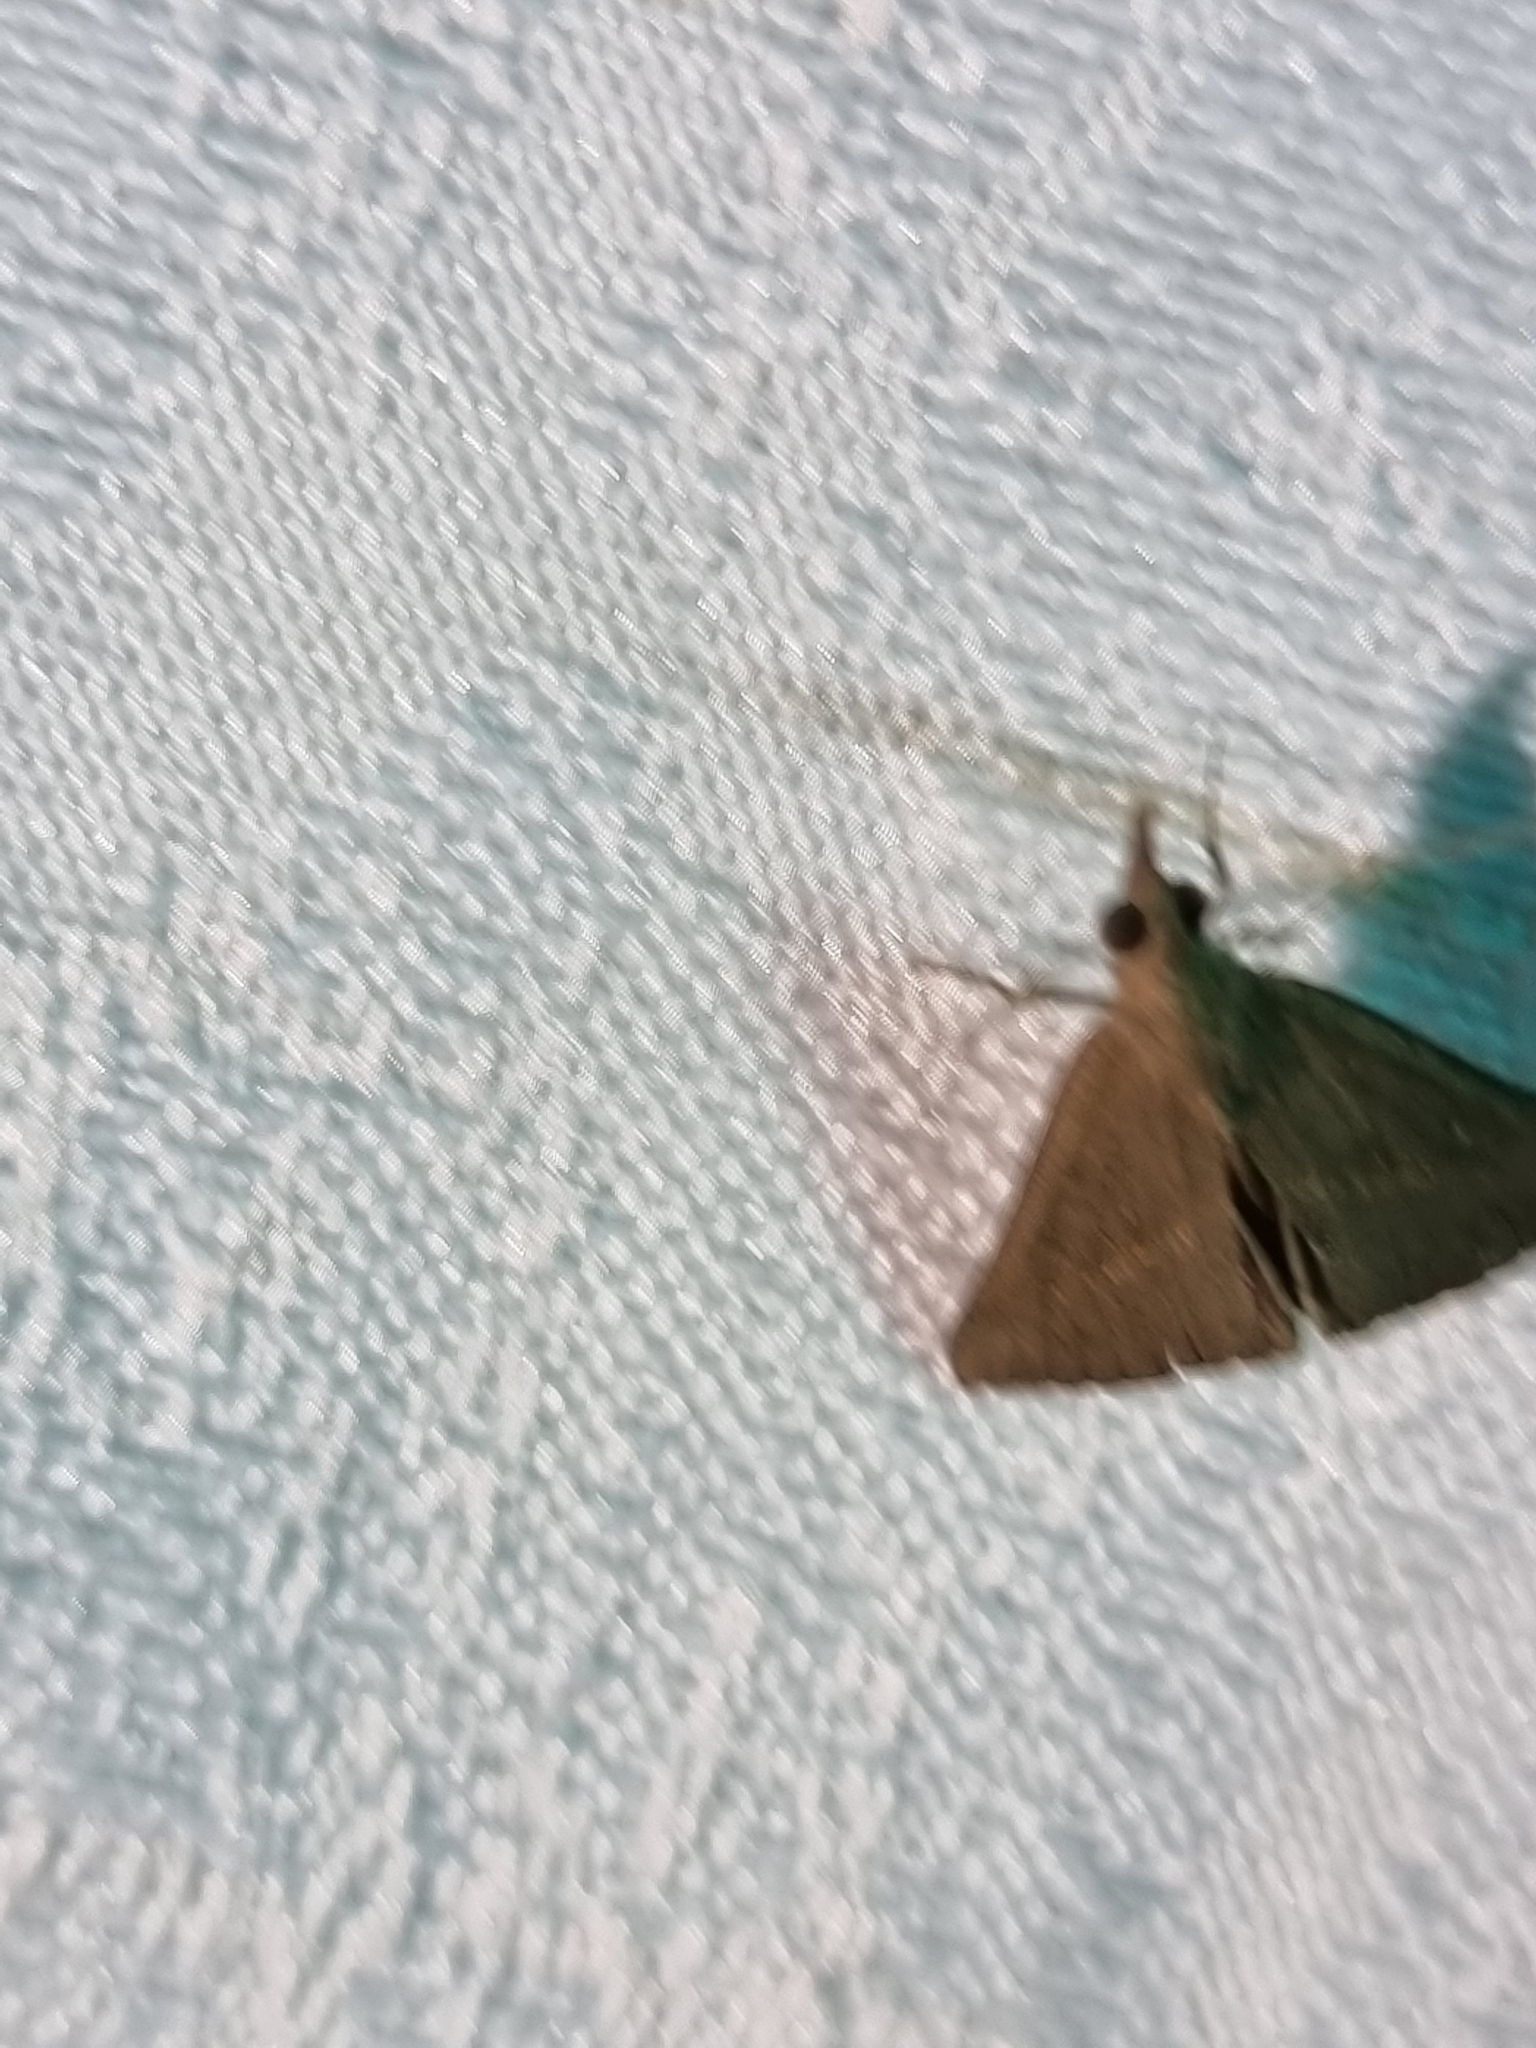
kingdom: Animalia
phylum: Arthropoda
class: Insecta
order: Lepidoptera
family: Erebidae
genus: Hypena
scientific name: Hypena lividalis
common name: Chevron snout
